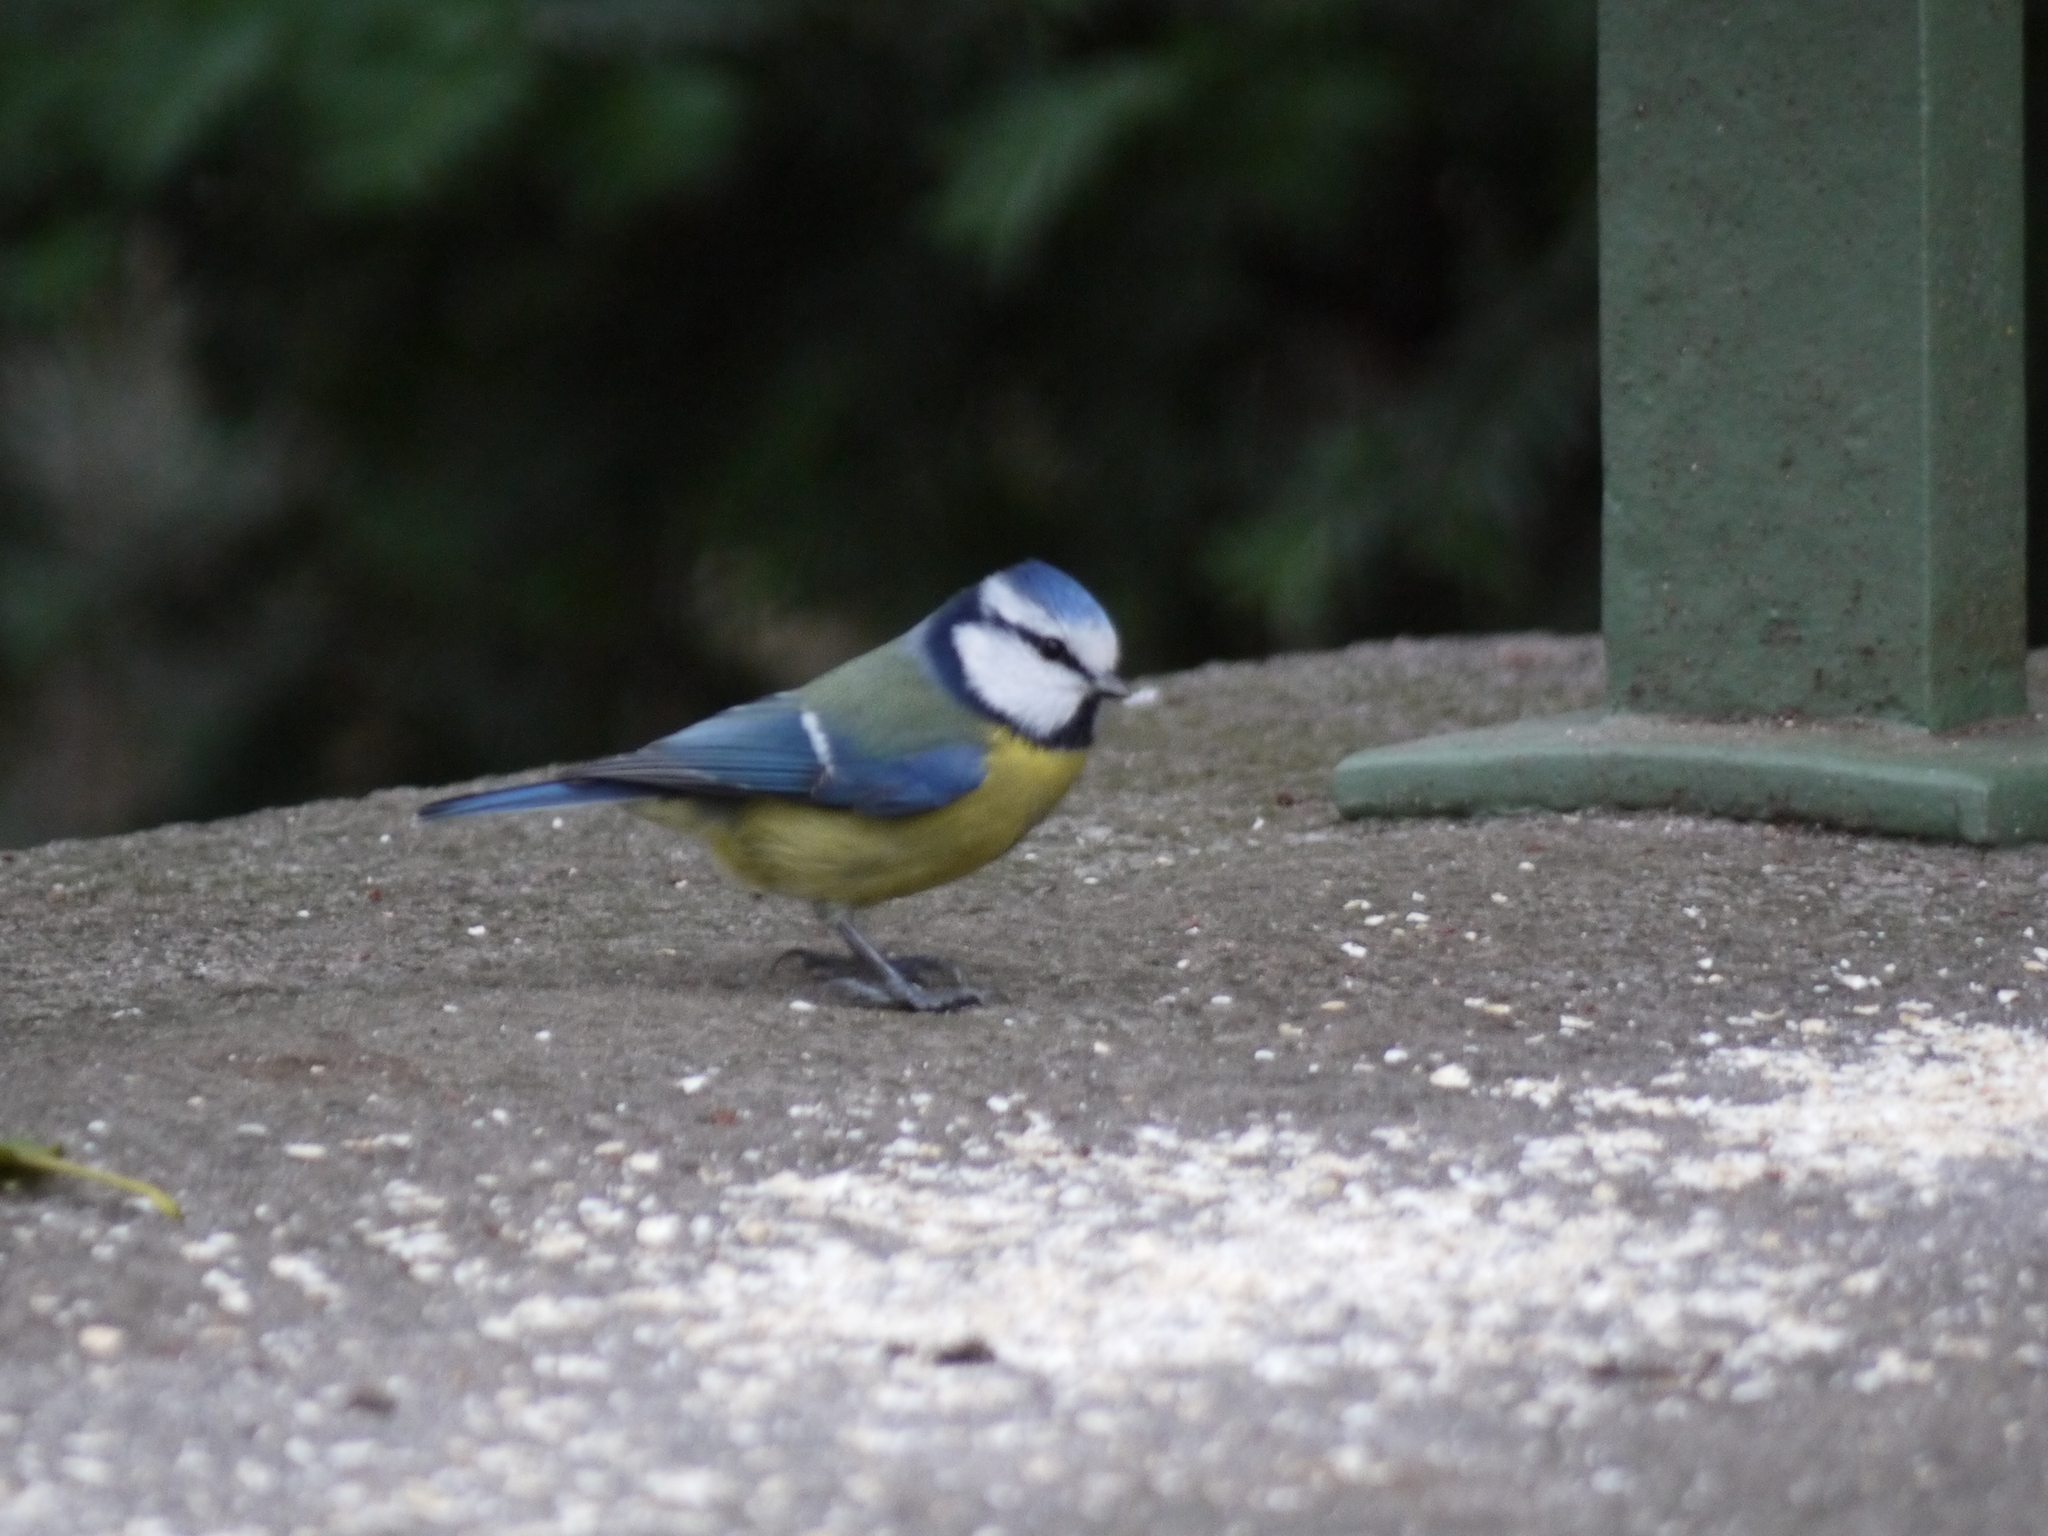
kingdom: Animalia
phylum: Chordata
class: Aves
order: Passeriformes
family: Paridae
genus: Cyanistes
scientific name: Cyanistes caeruleus
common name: Eurasian blue tit
